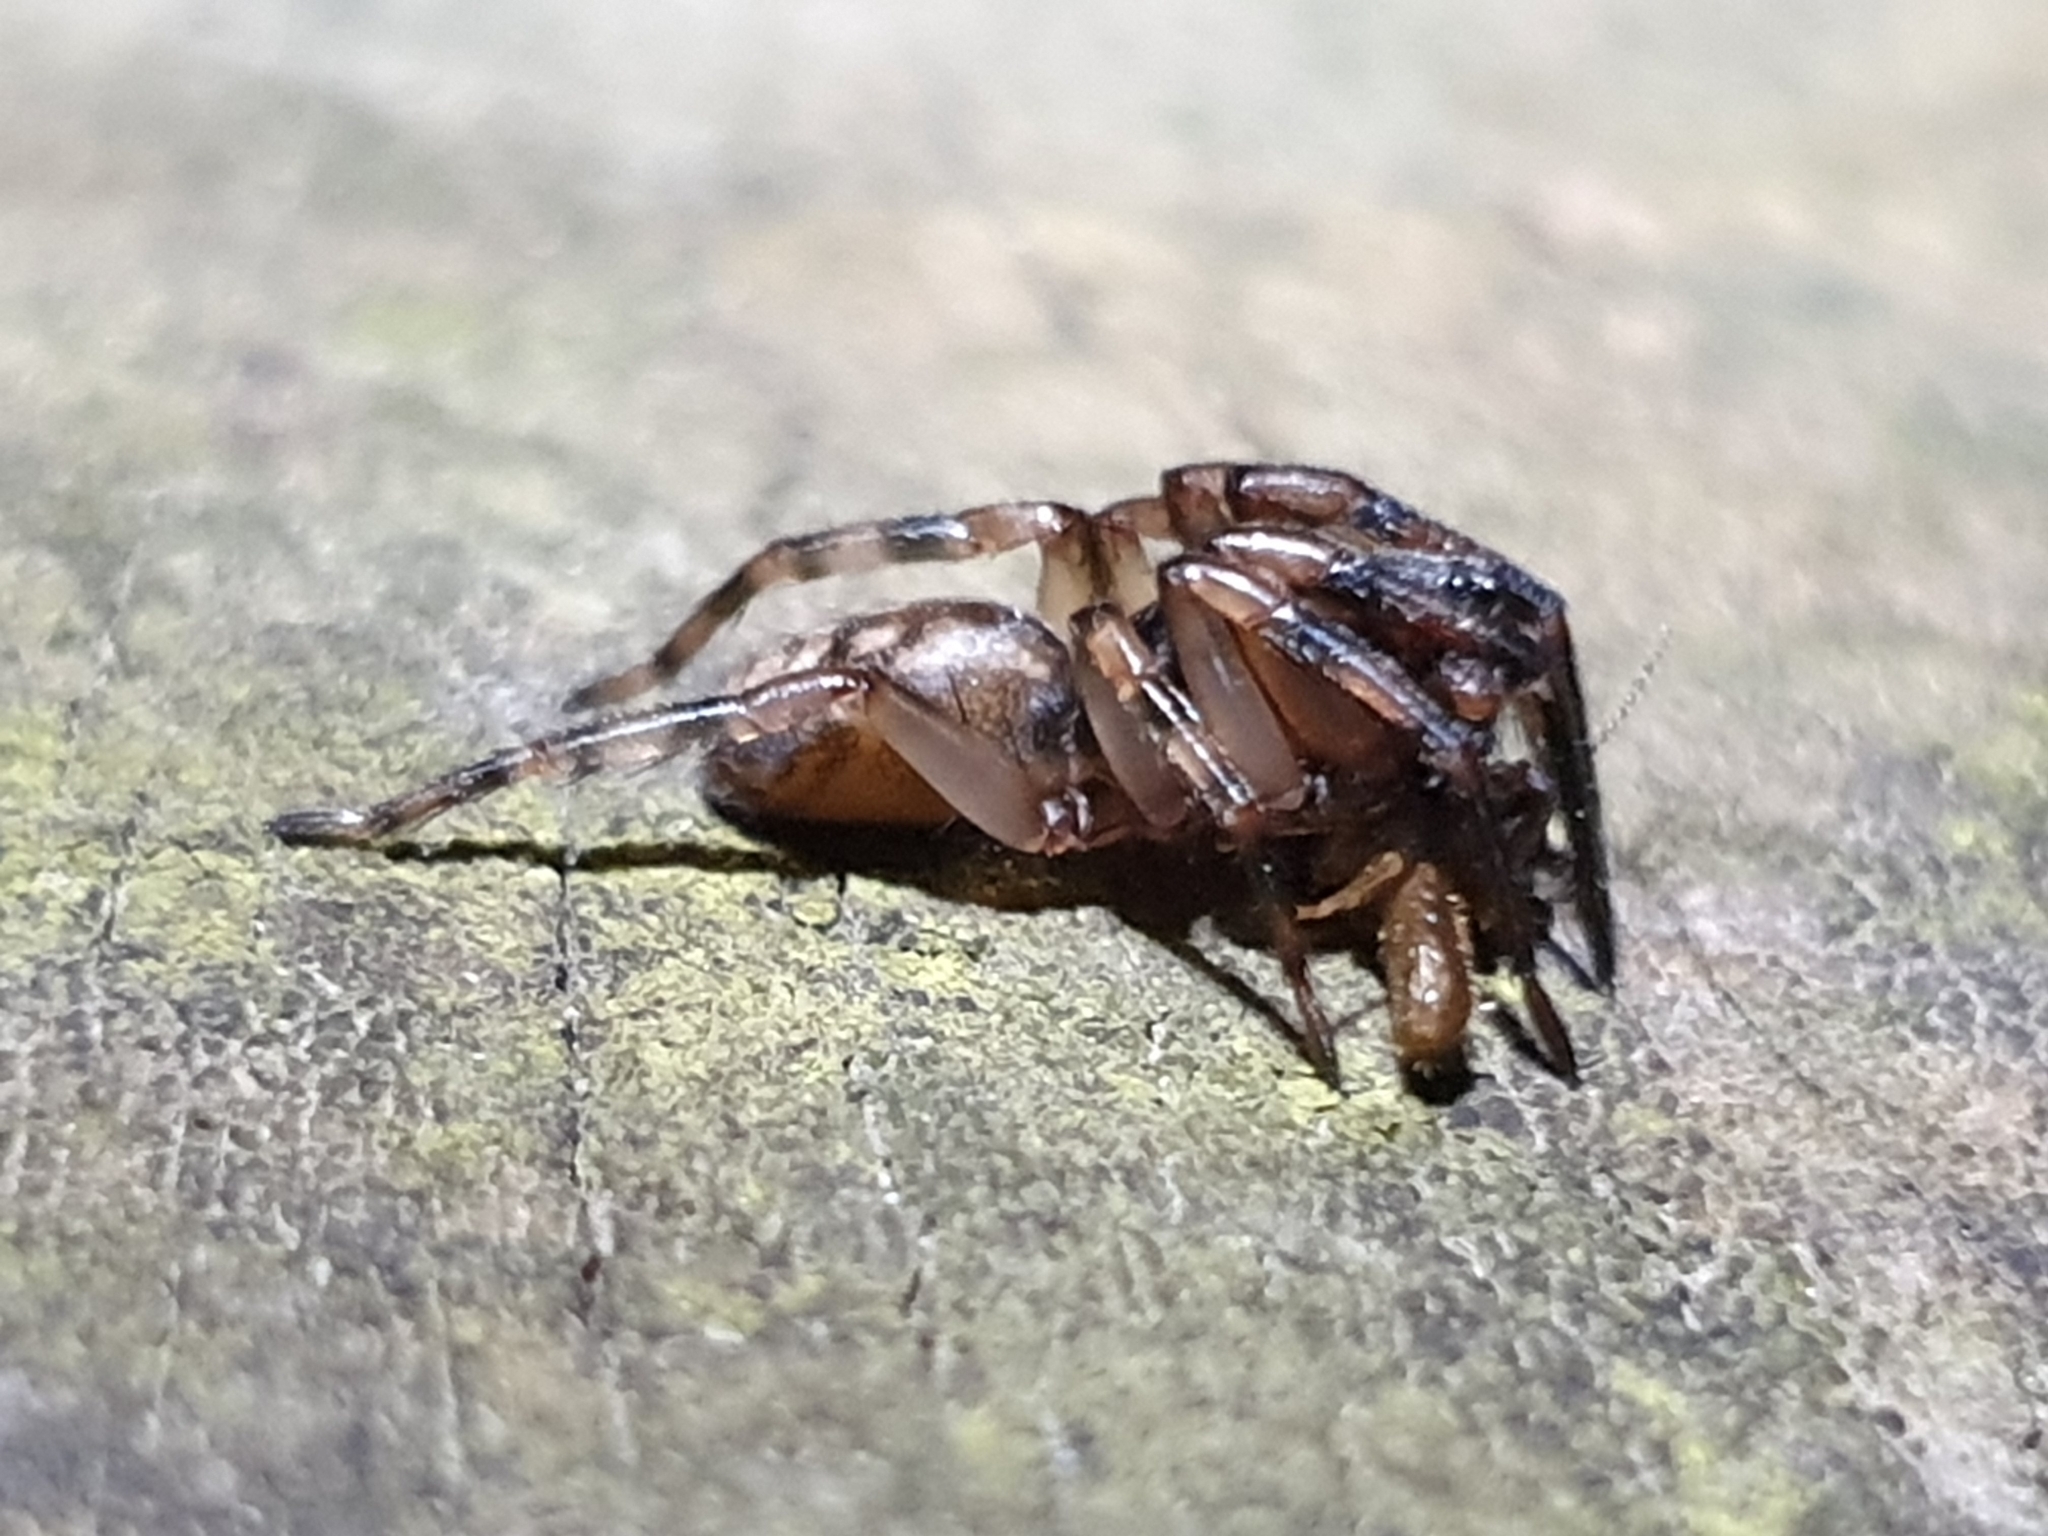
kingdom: Animalia
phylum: Arthropoda
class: Arachnida
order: Araneae
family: Cycloctenidae
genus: Plectophanes
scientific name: Plectophanes
